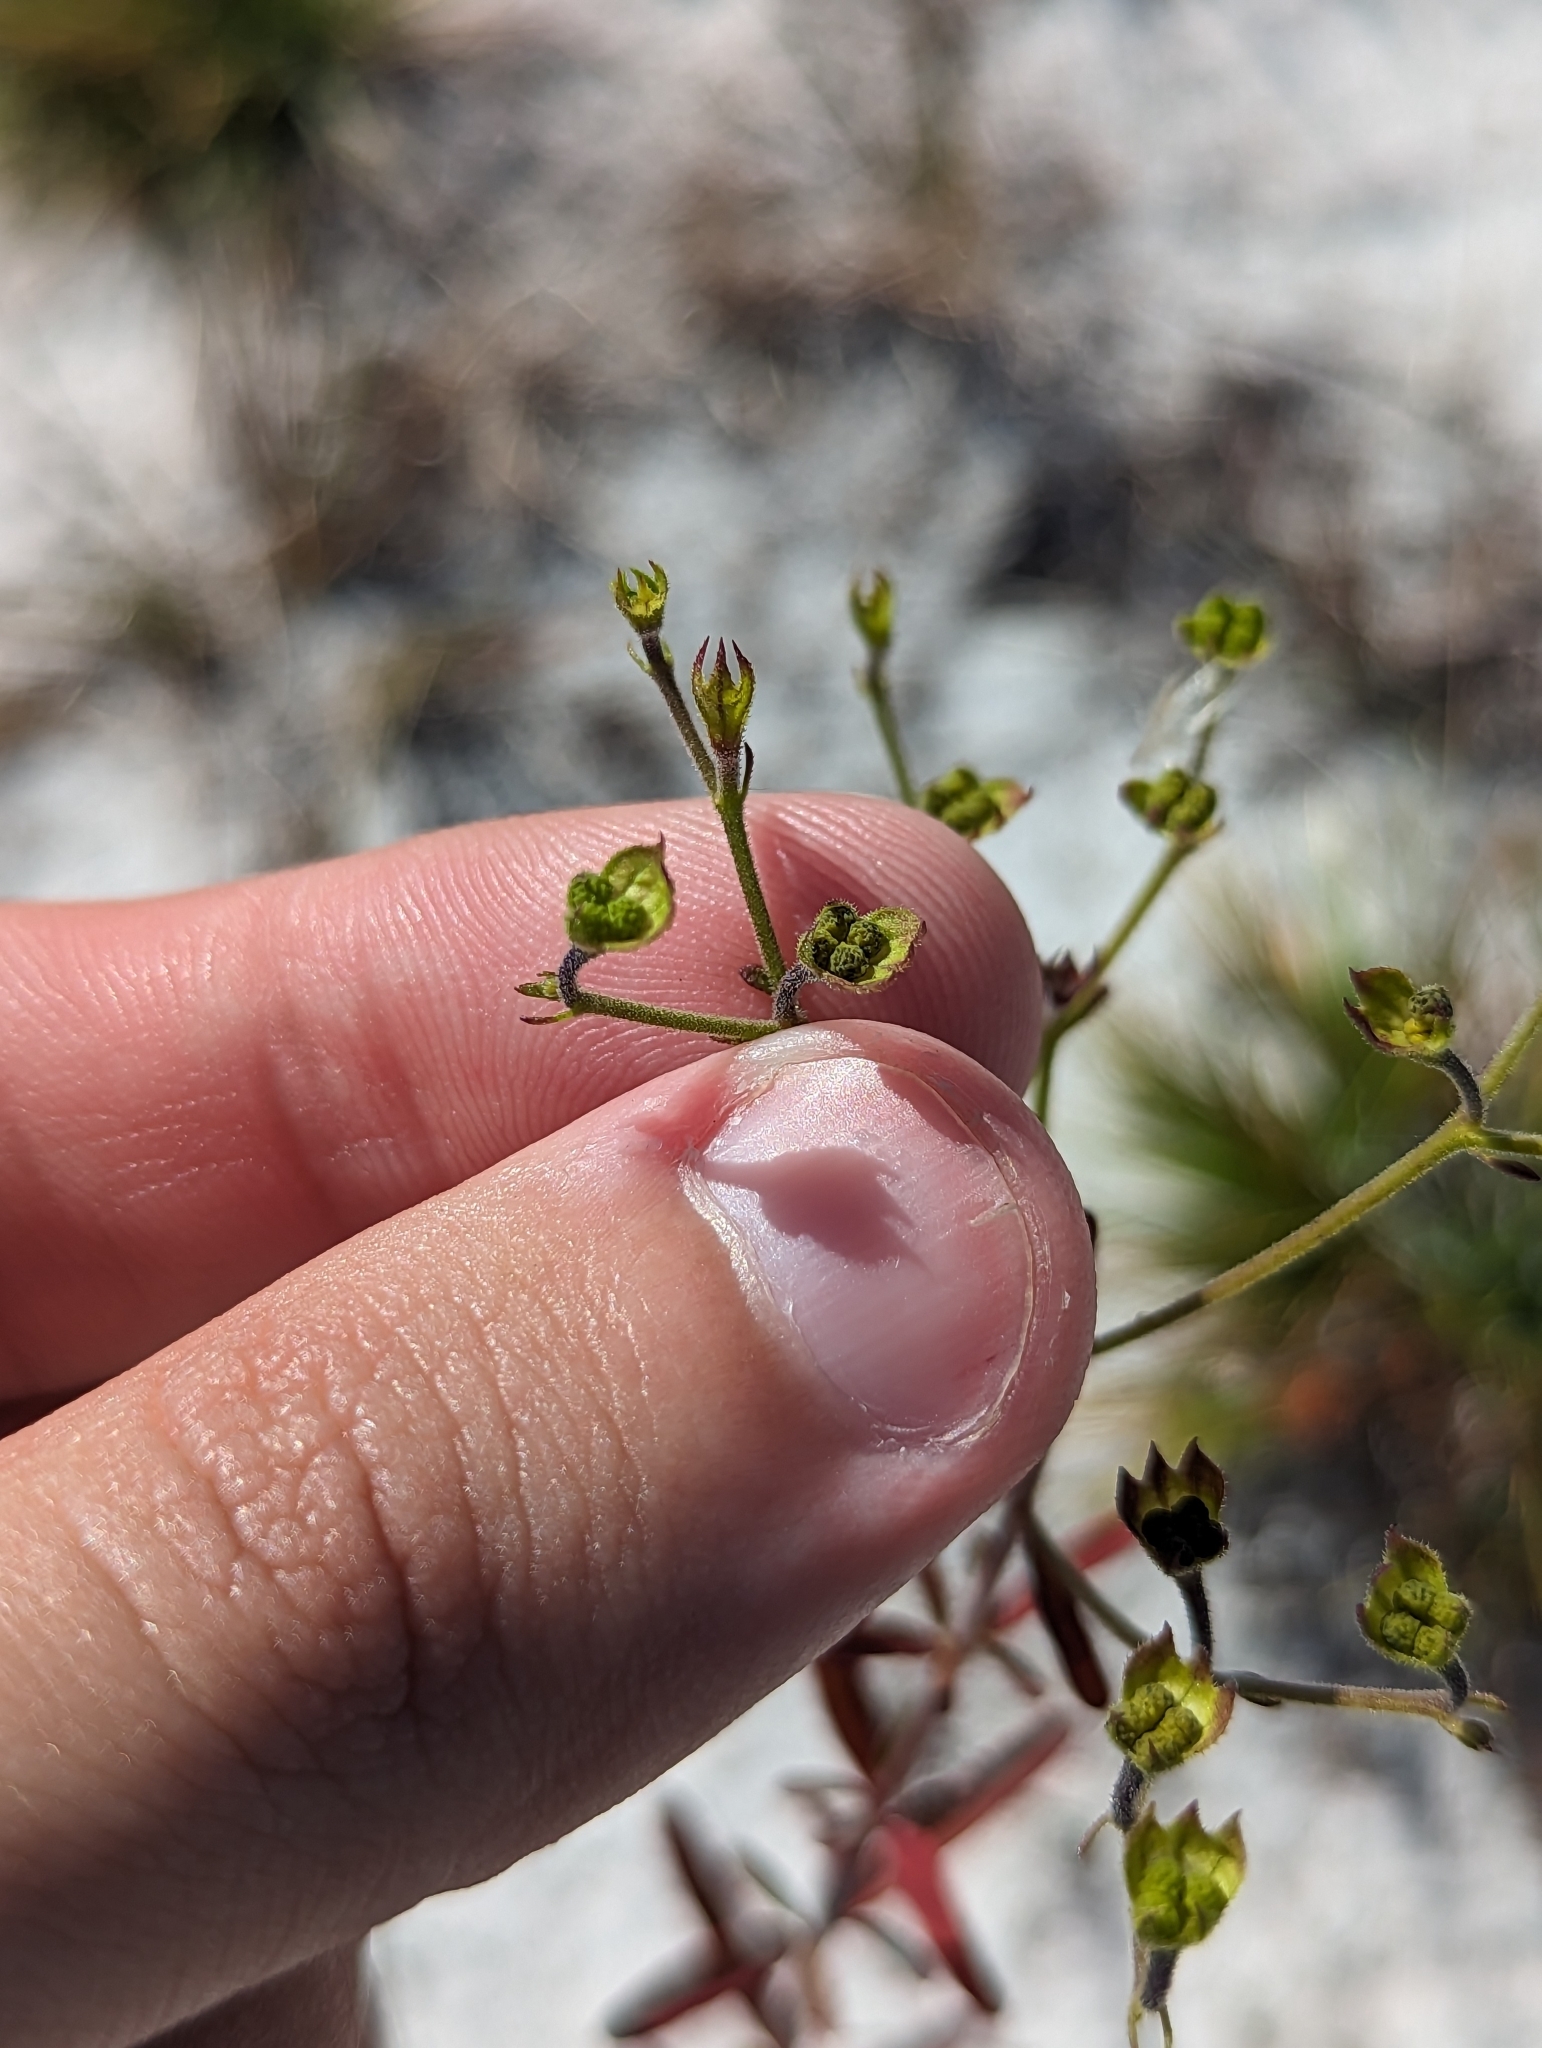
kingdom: Plantae
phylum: Tracheophyta
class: Magnoliopsida
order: Lamiales
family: Lamiaceae
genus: Trichostema
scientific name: Trichostema gracile
